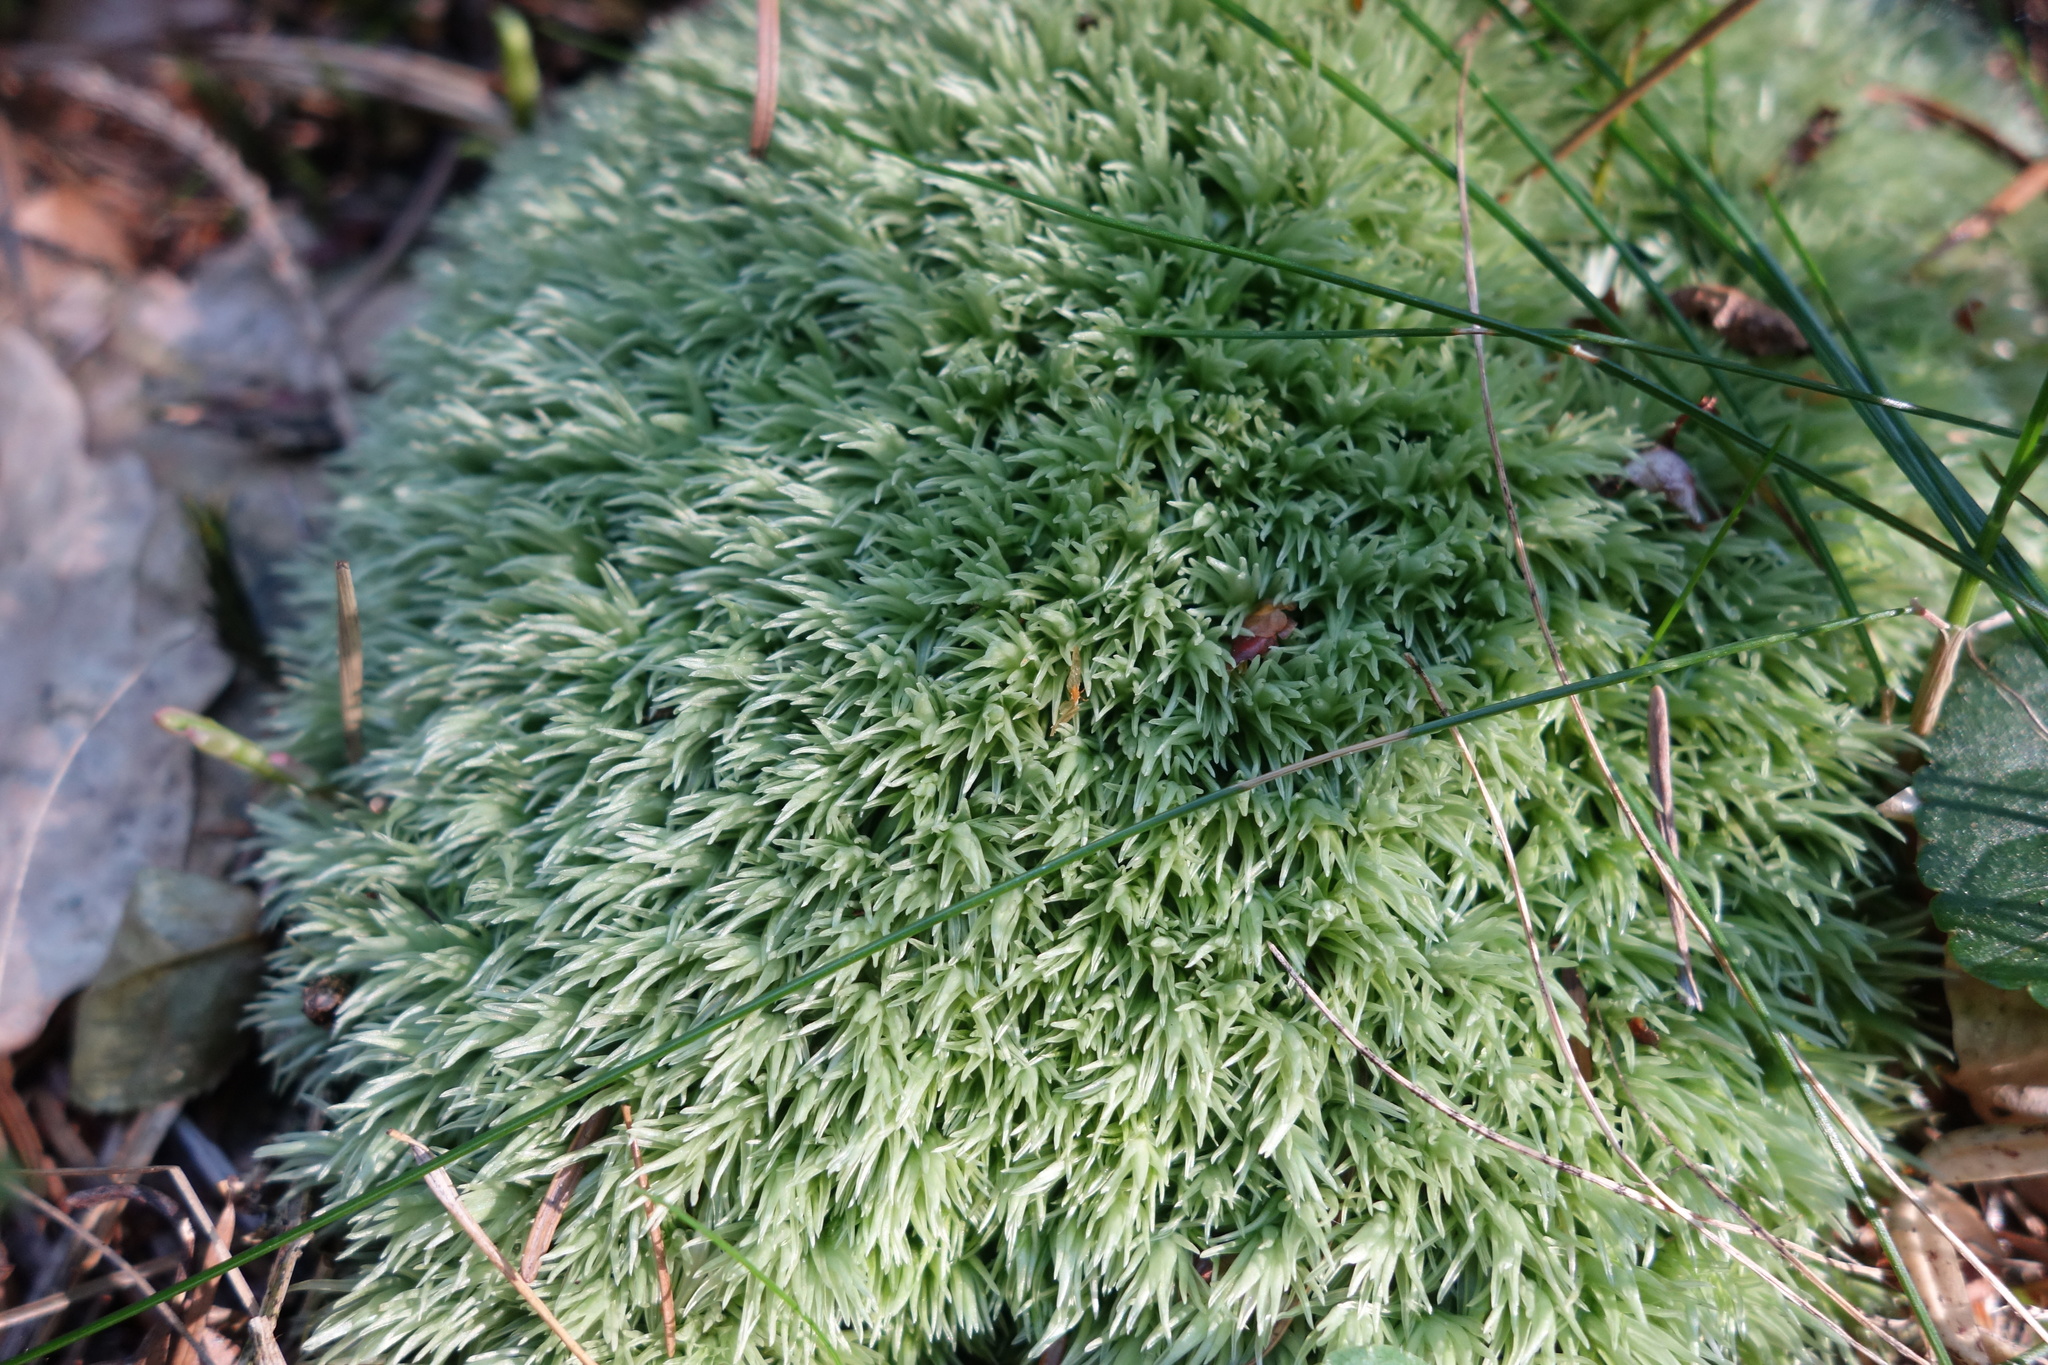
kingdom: Plantae
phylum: Bryophyta
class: Bryopsida
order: Dicranales
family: Leucobryaceae
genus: Leucobryum
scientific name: Leucobryum glaucum
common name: Large white-moss
